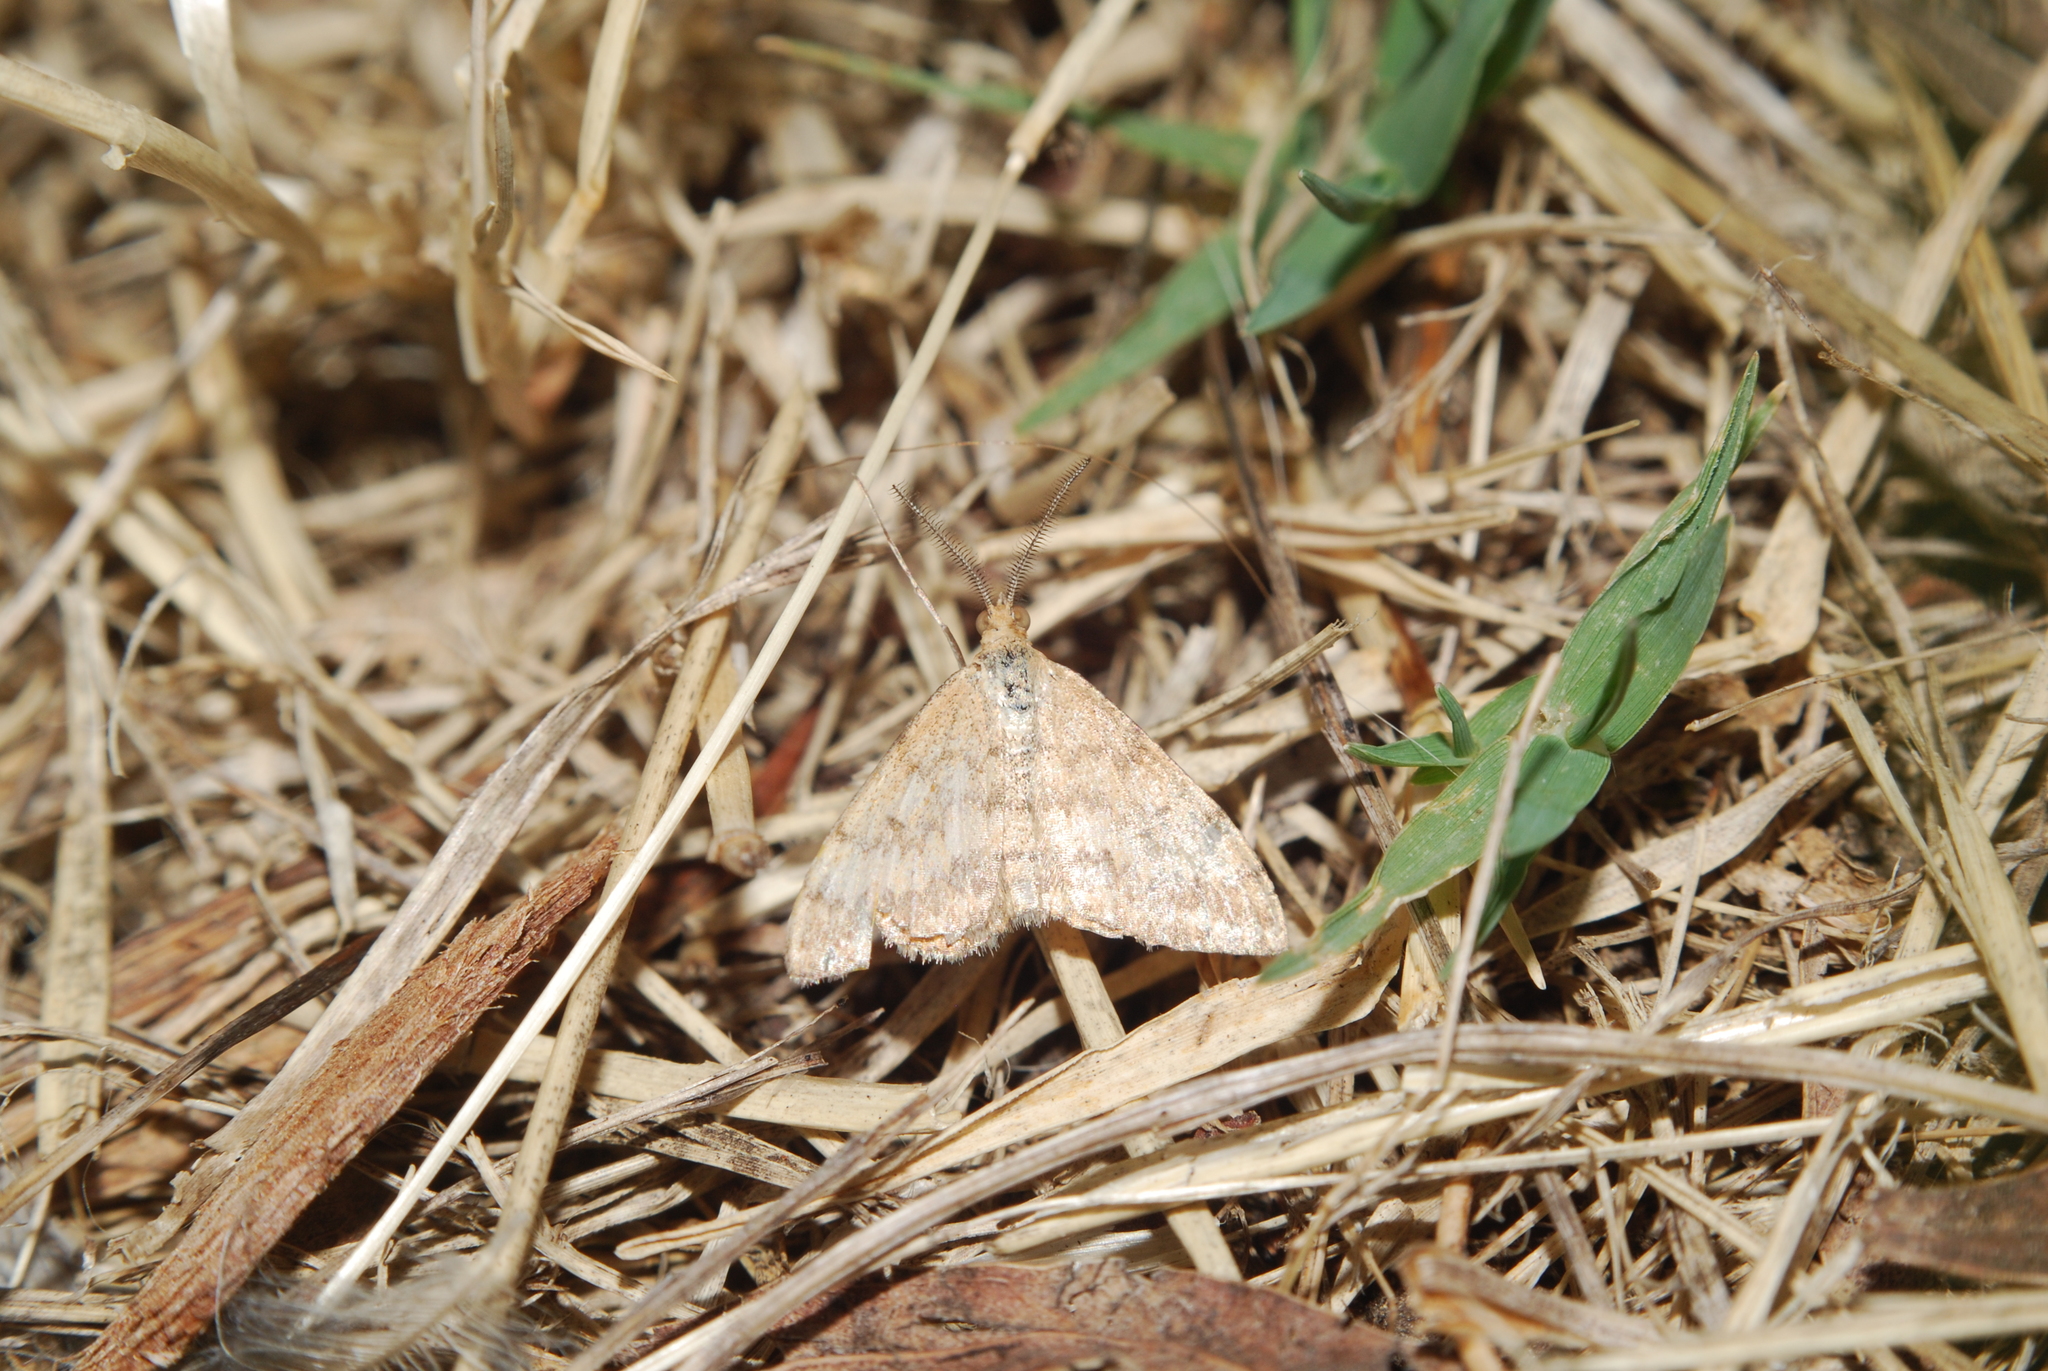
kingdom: Animalia
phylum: Arthropoda
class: Insecta
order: Lepidoptera
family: Geometridae
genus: Scopula
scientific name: Scopula rubraria
